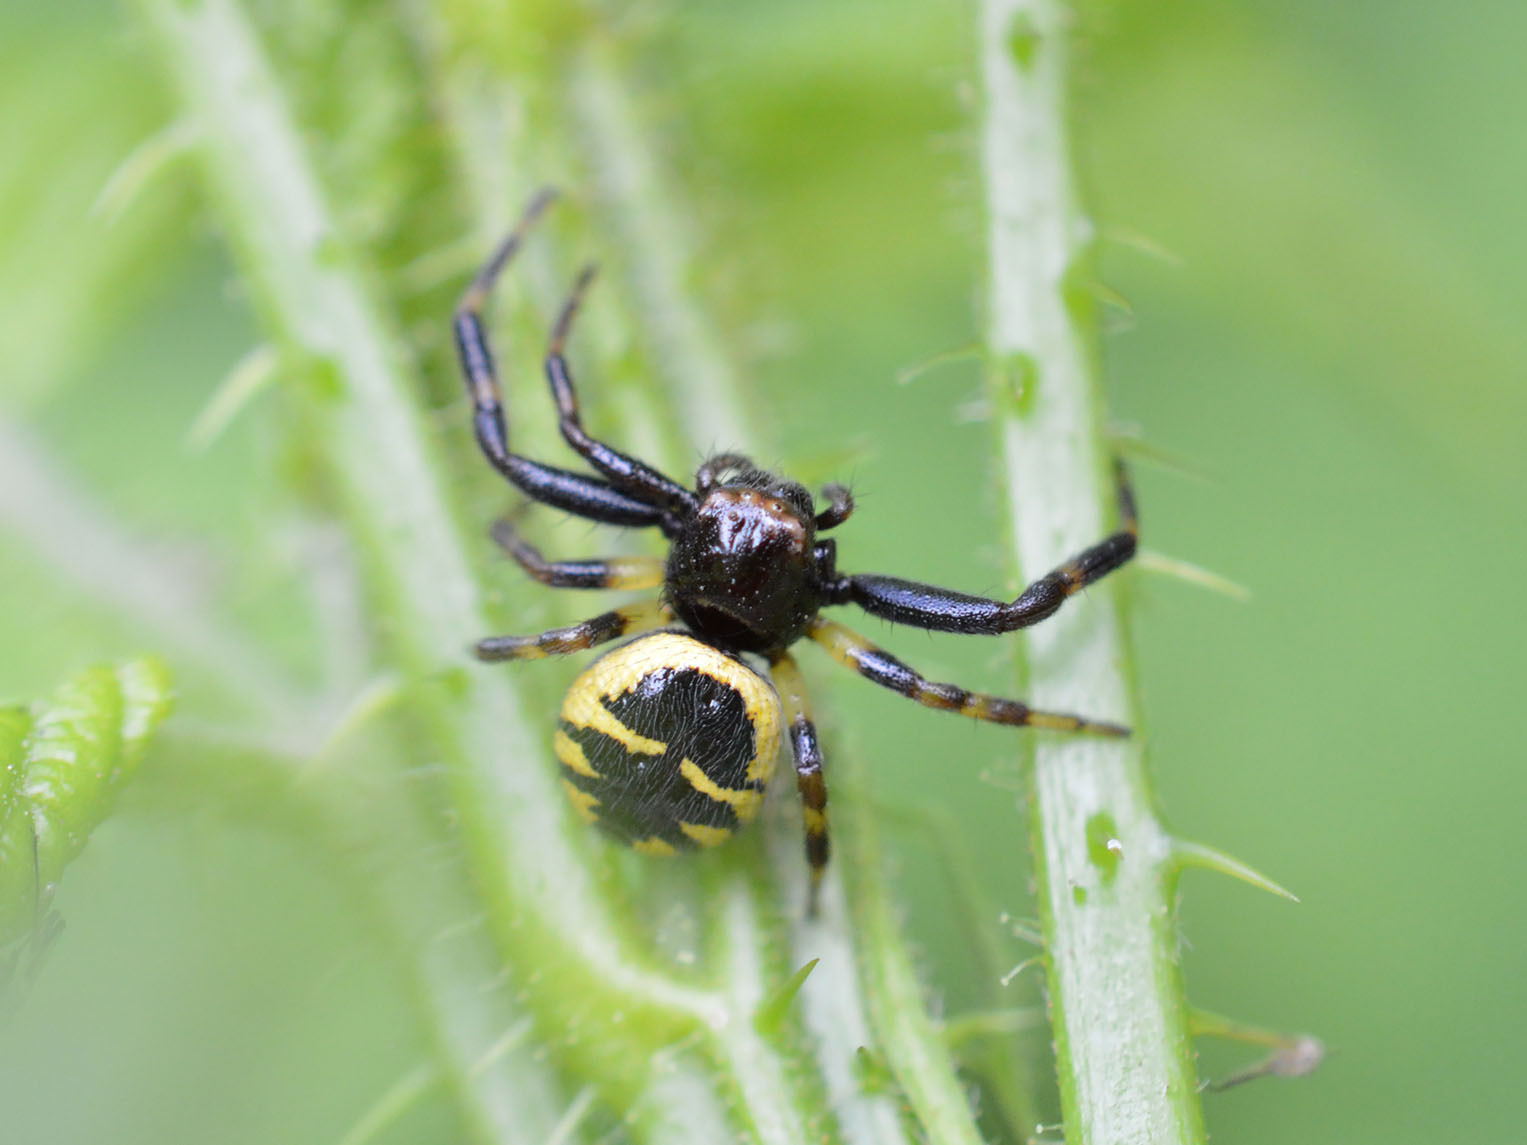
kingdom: Animalia
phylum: Arthropoda
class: Arachnida
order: Araneae
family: Thomisidae
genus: Synema
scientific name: Synema globosum
